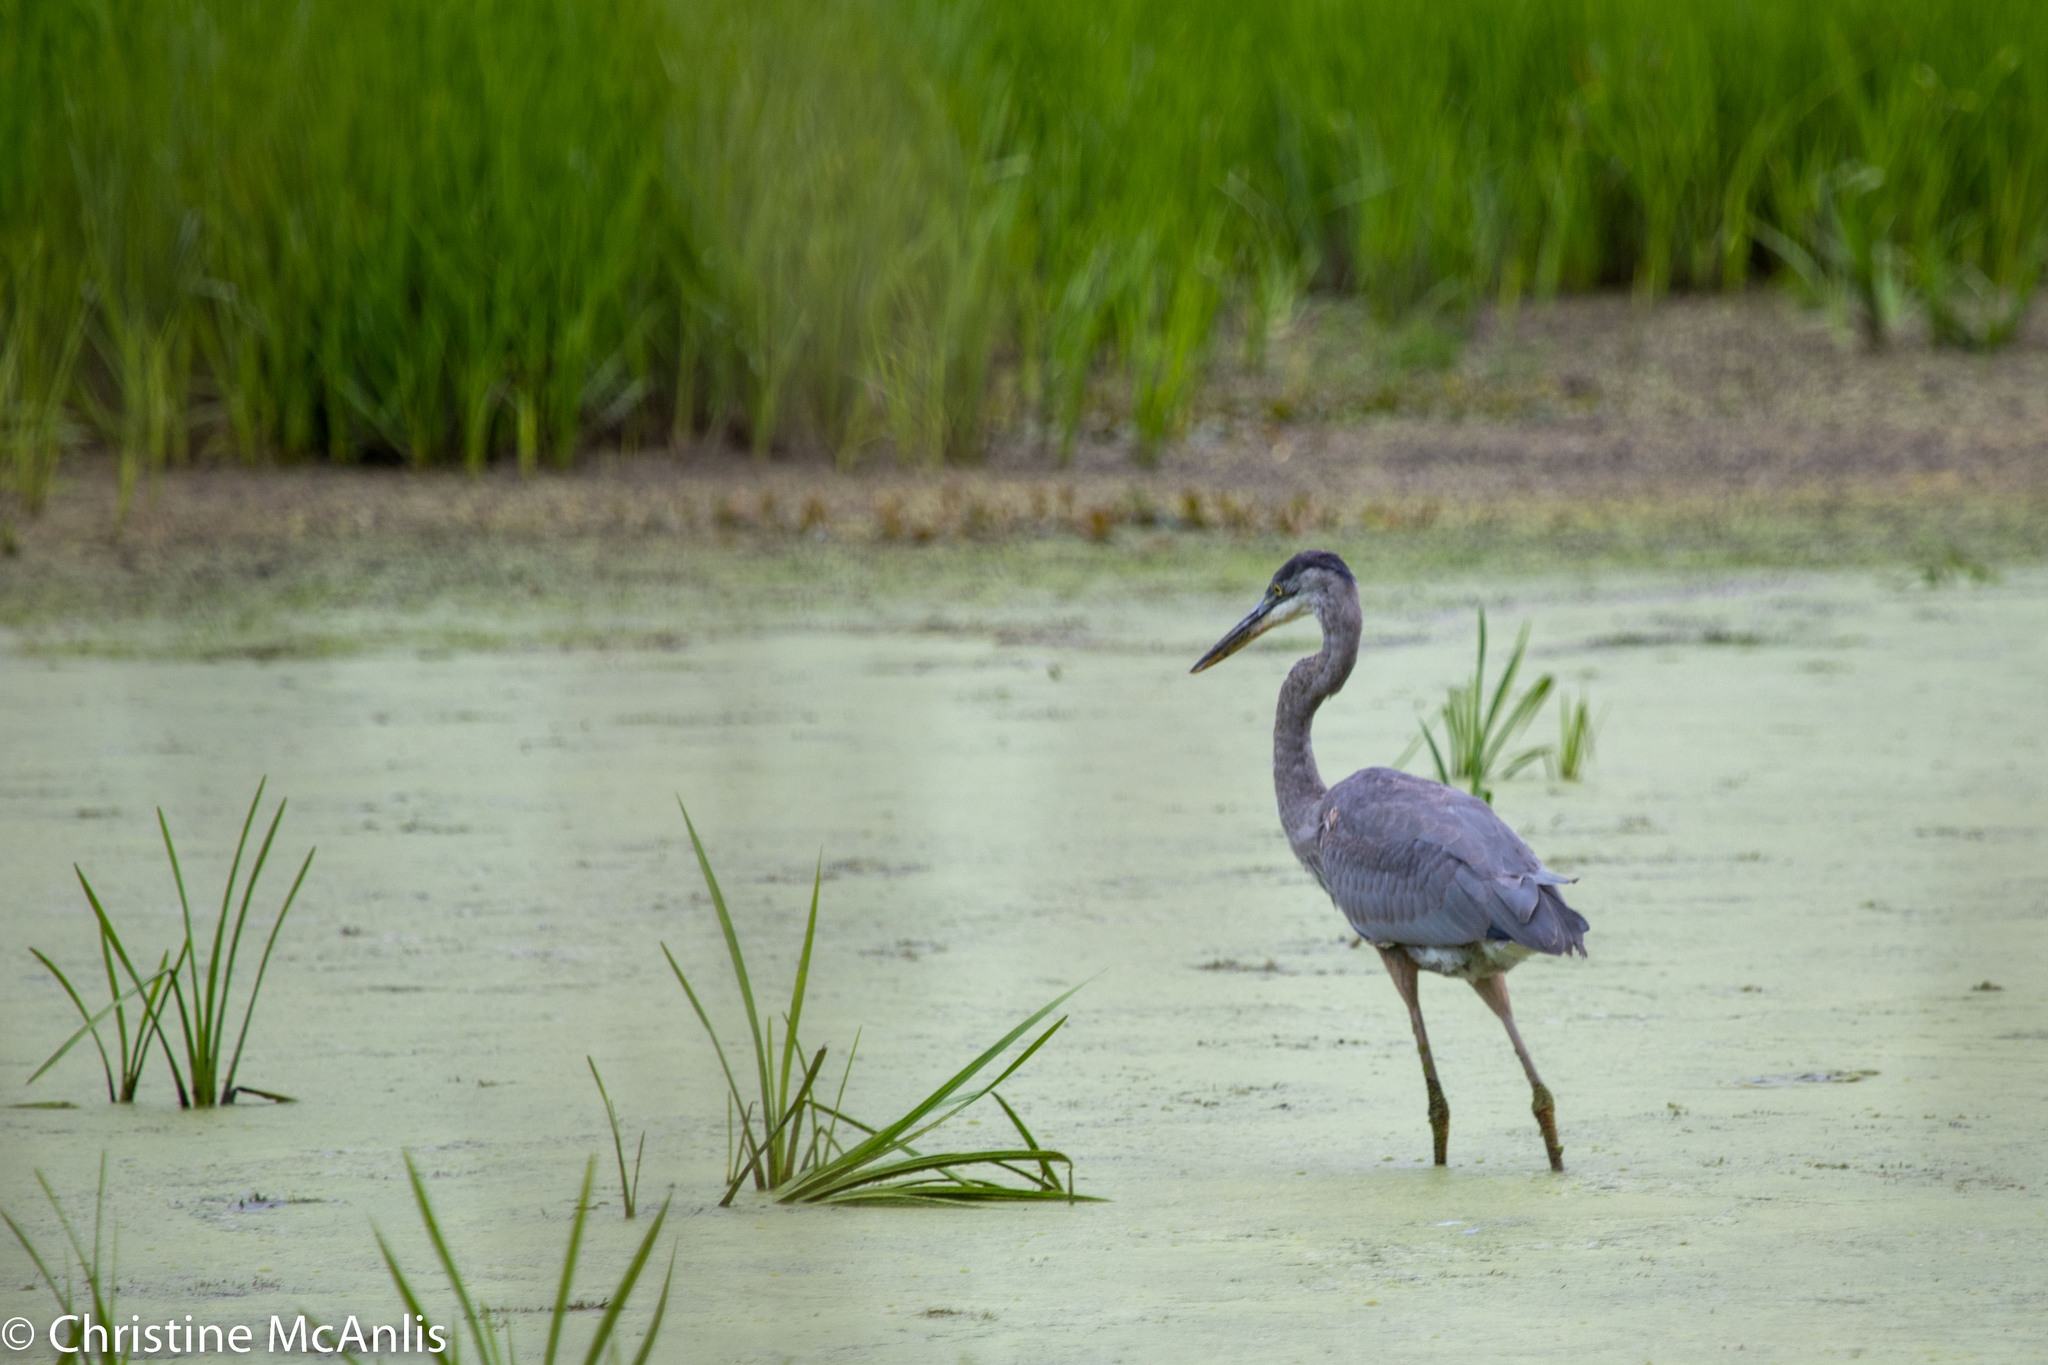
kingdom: Animalia
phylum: Chordata
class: Aves
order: Pelecaniformes
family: Ardeidae
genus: Ardea
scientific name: Ardea herodias
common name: Great blue heron
